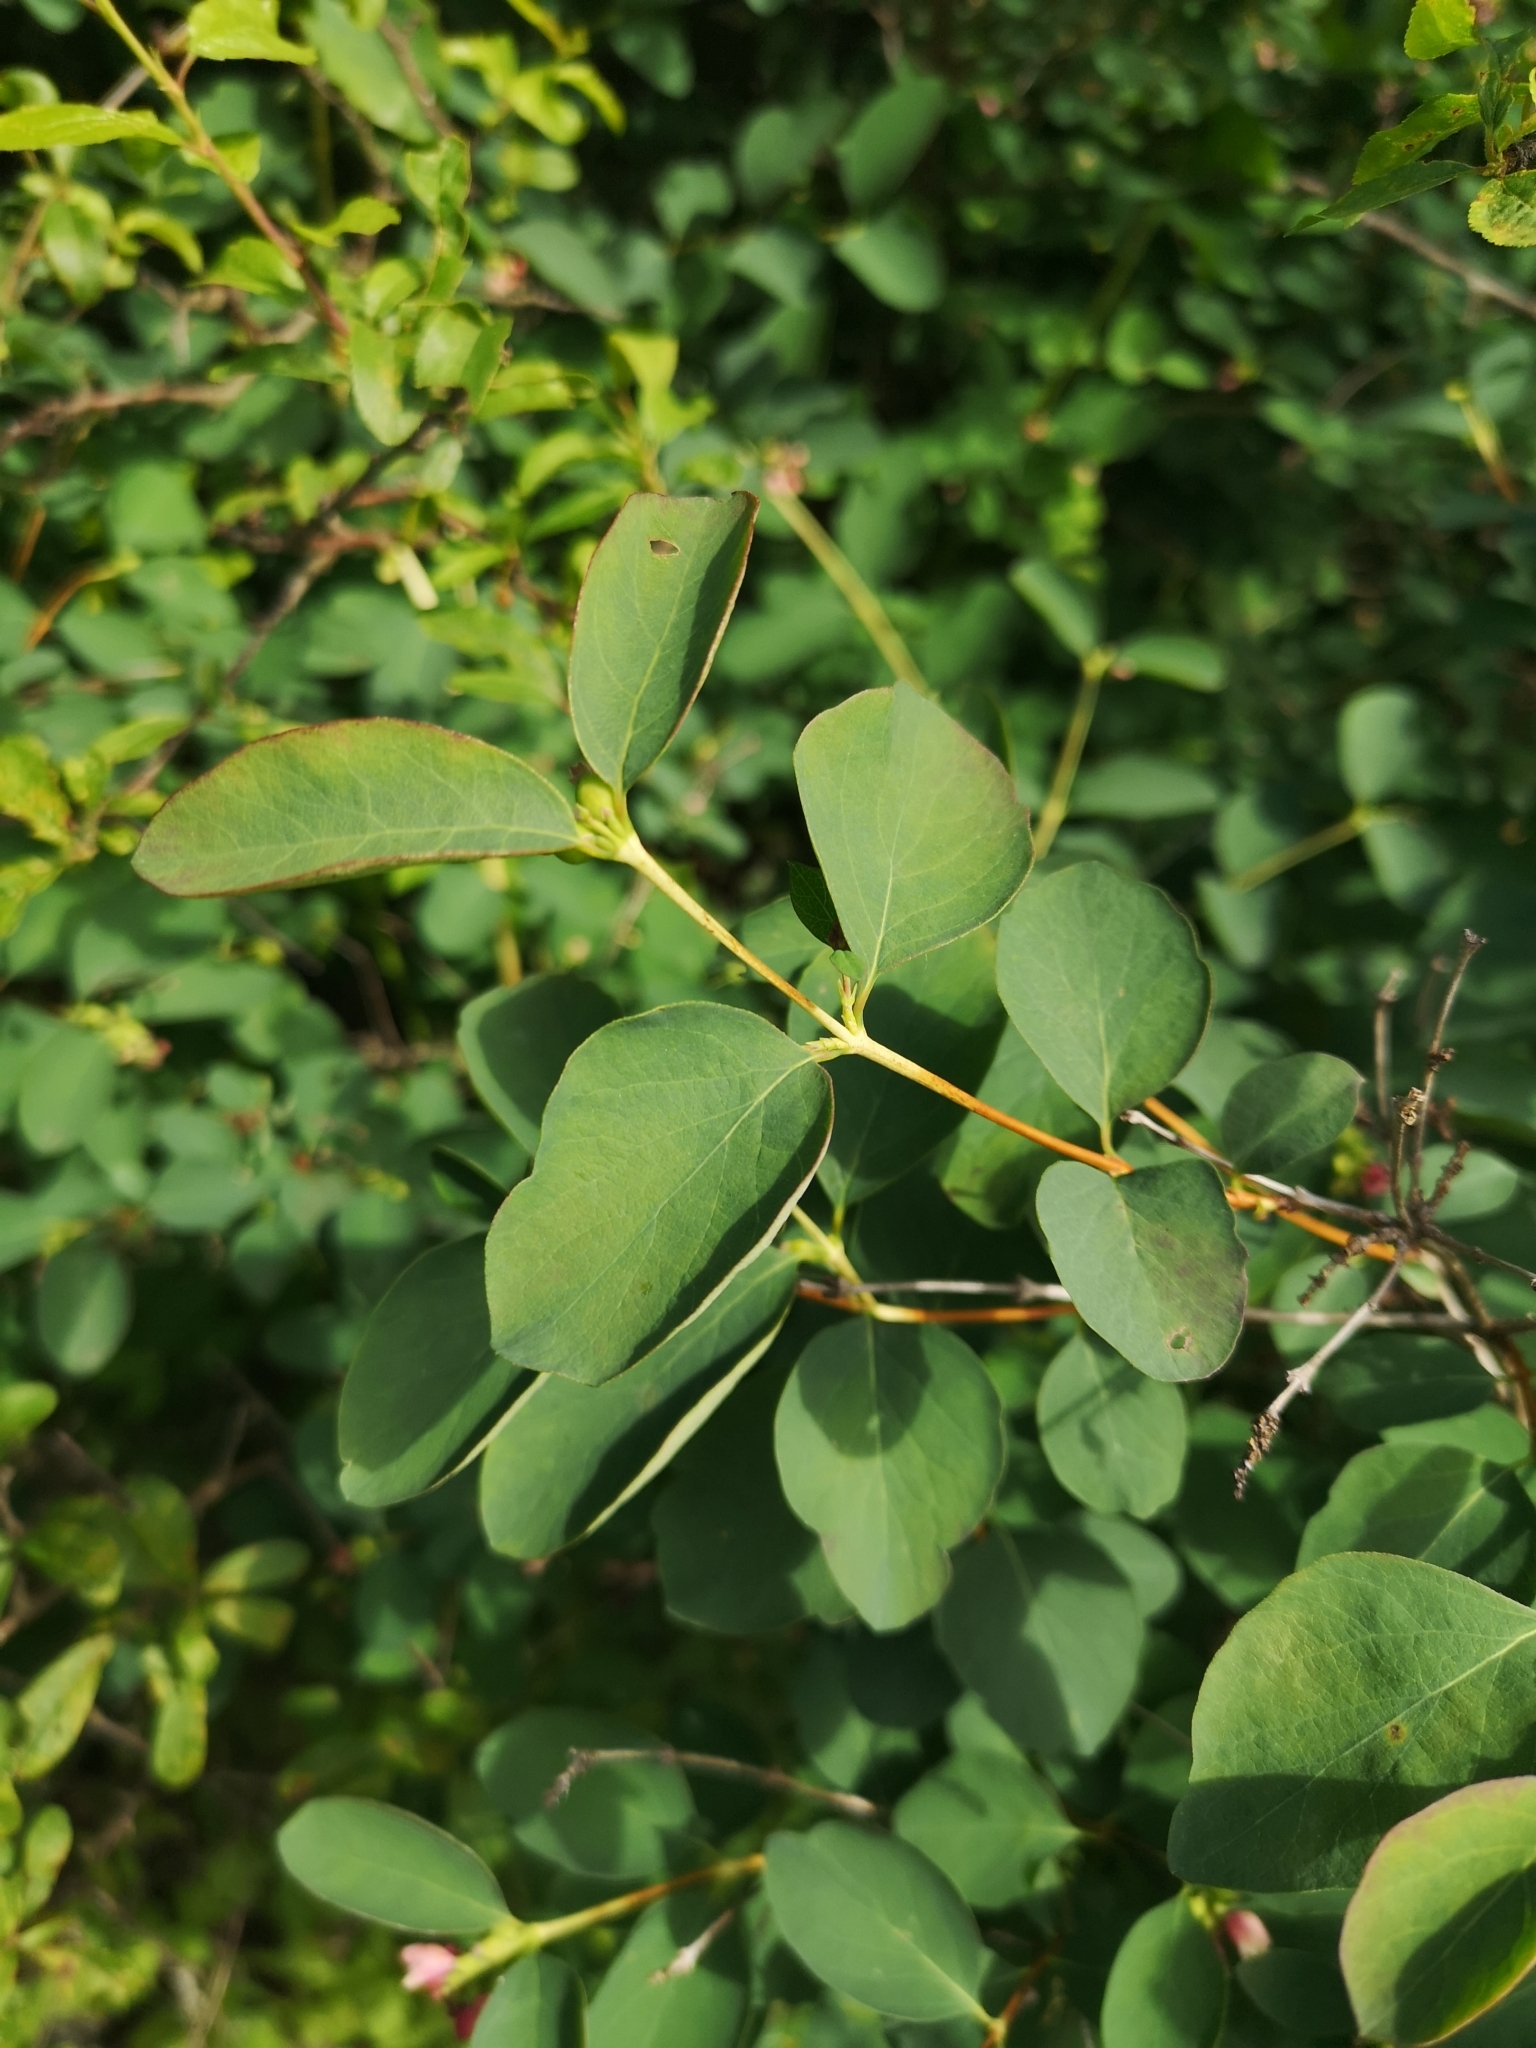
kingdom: Plantae
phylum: Tracheophyta
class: Magnoliopsida
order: Dipsacales
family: Caprifoliaceae
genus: Symphoricarpos
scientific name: Symphoricarpos albus
